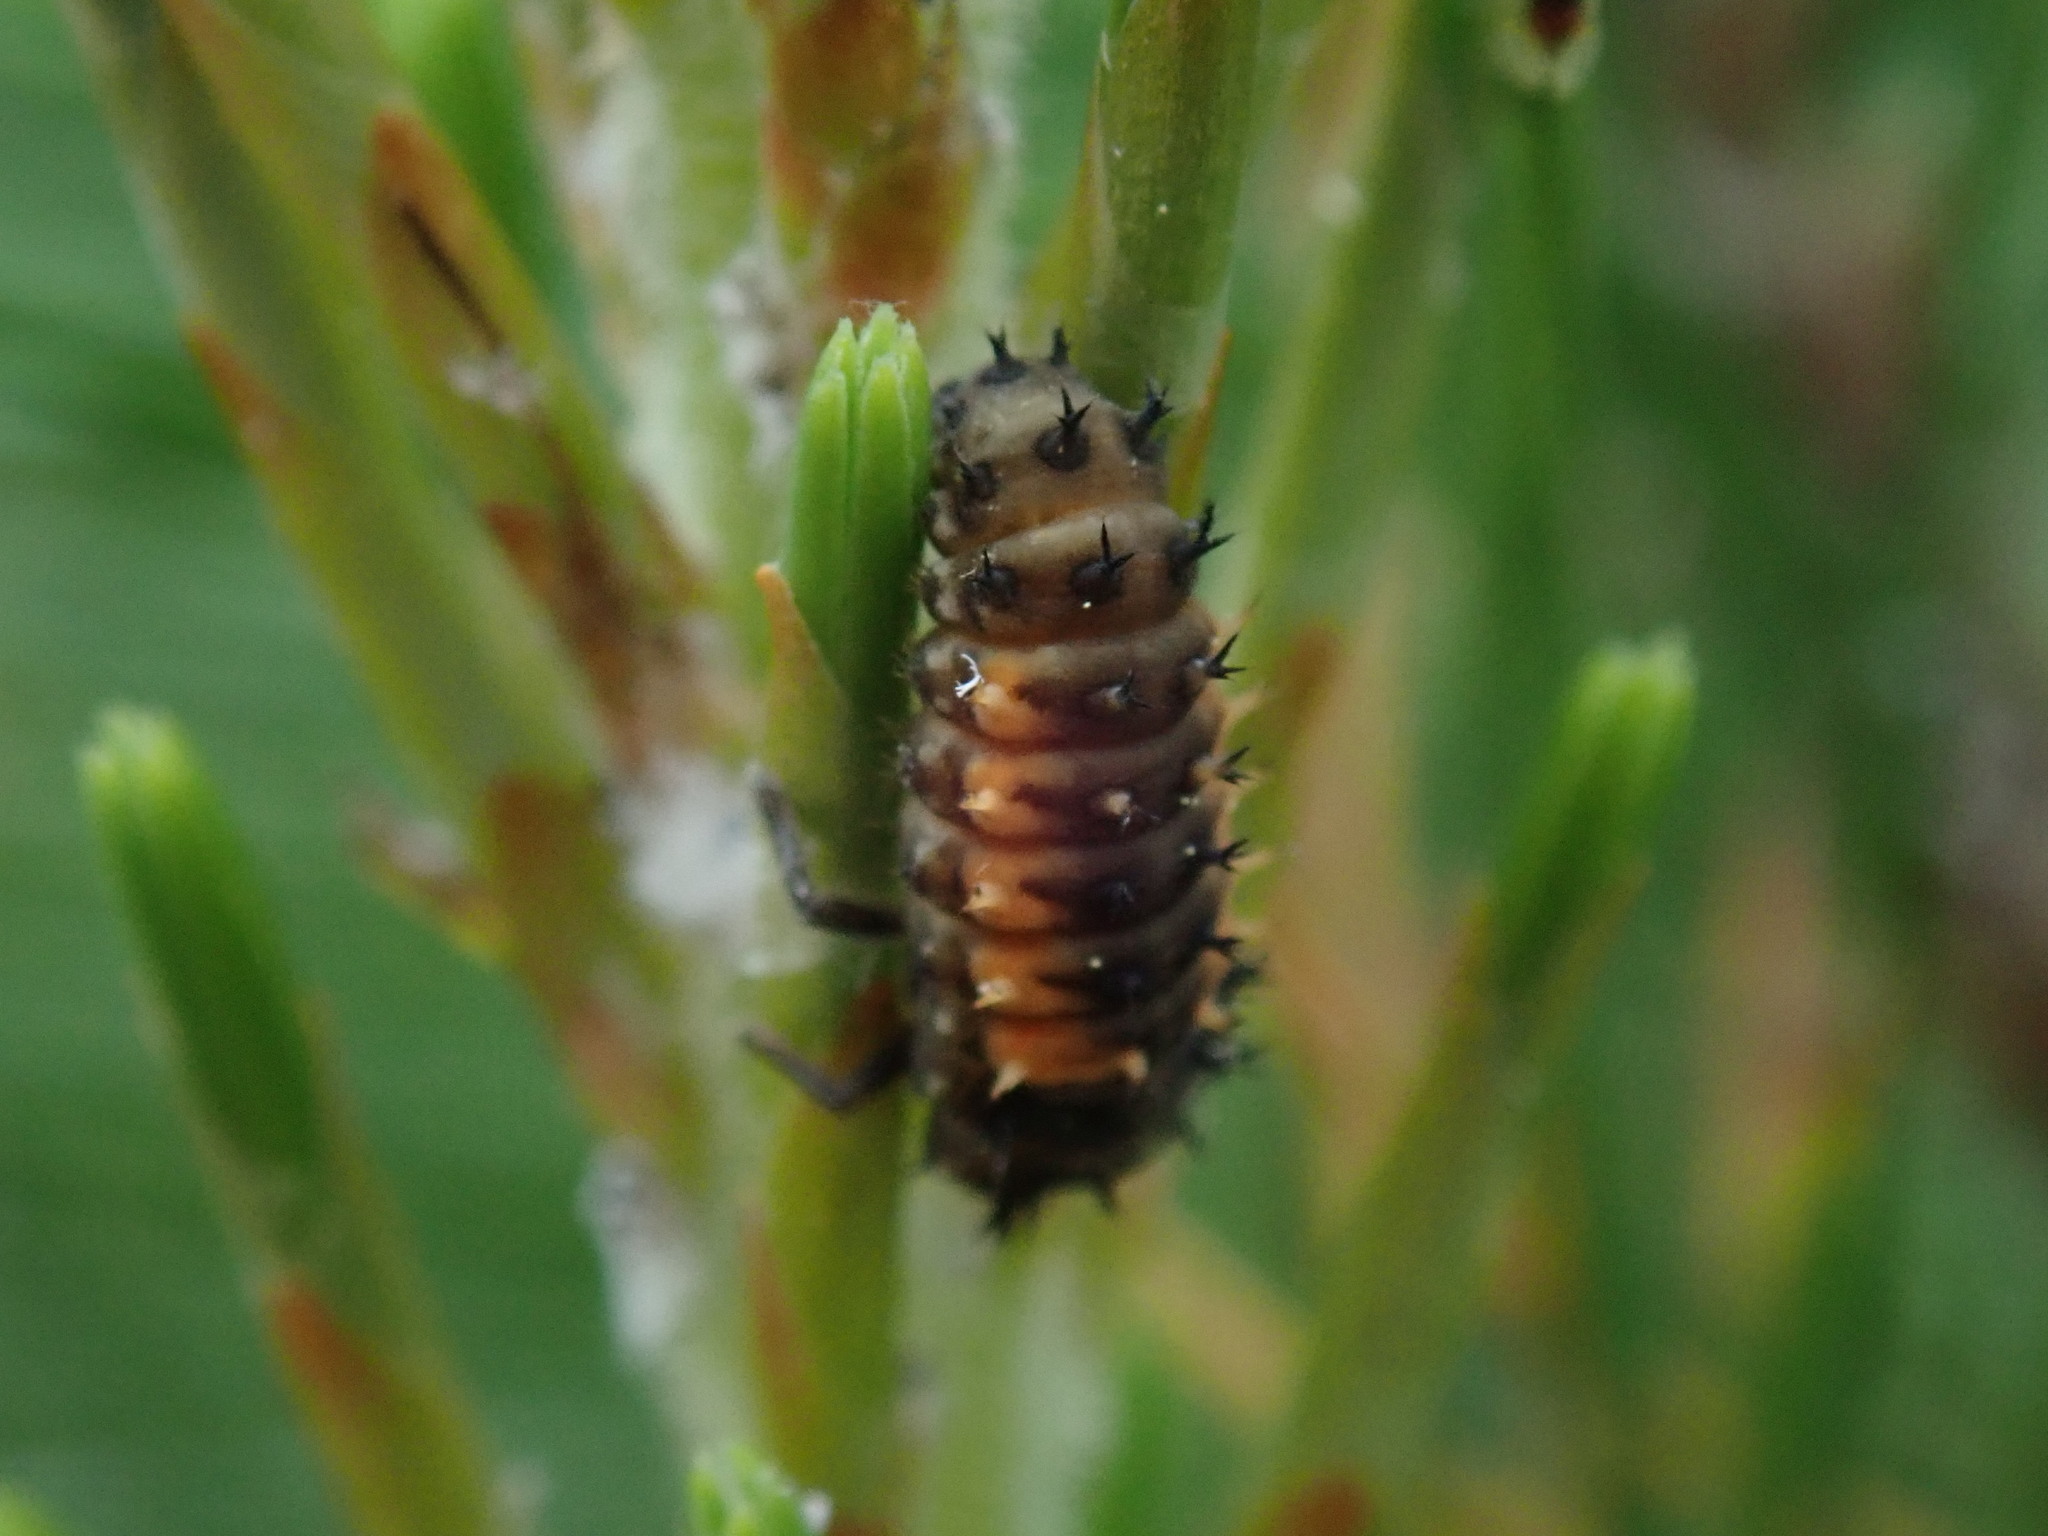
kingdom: Animalia
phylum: Arthropoda
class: Insecta
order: Coleoptera
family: Coccinellidae
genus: Harmonia
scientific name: Harmonia axyridis
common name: Harlequin ladybird
